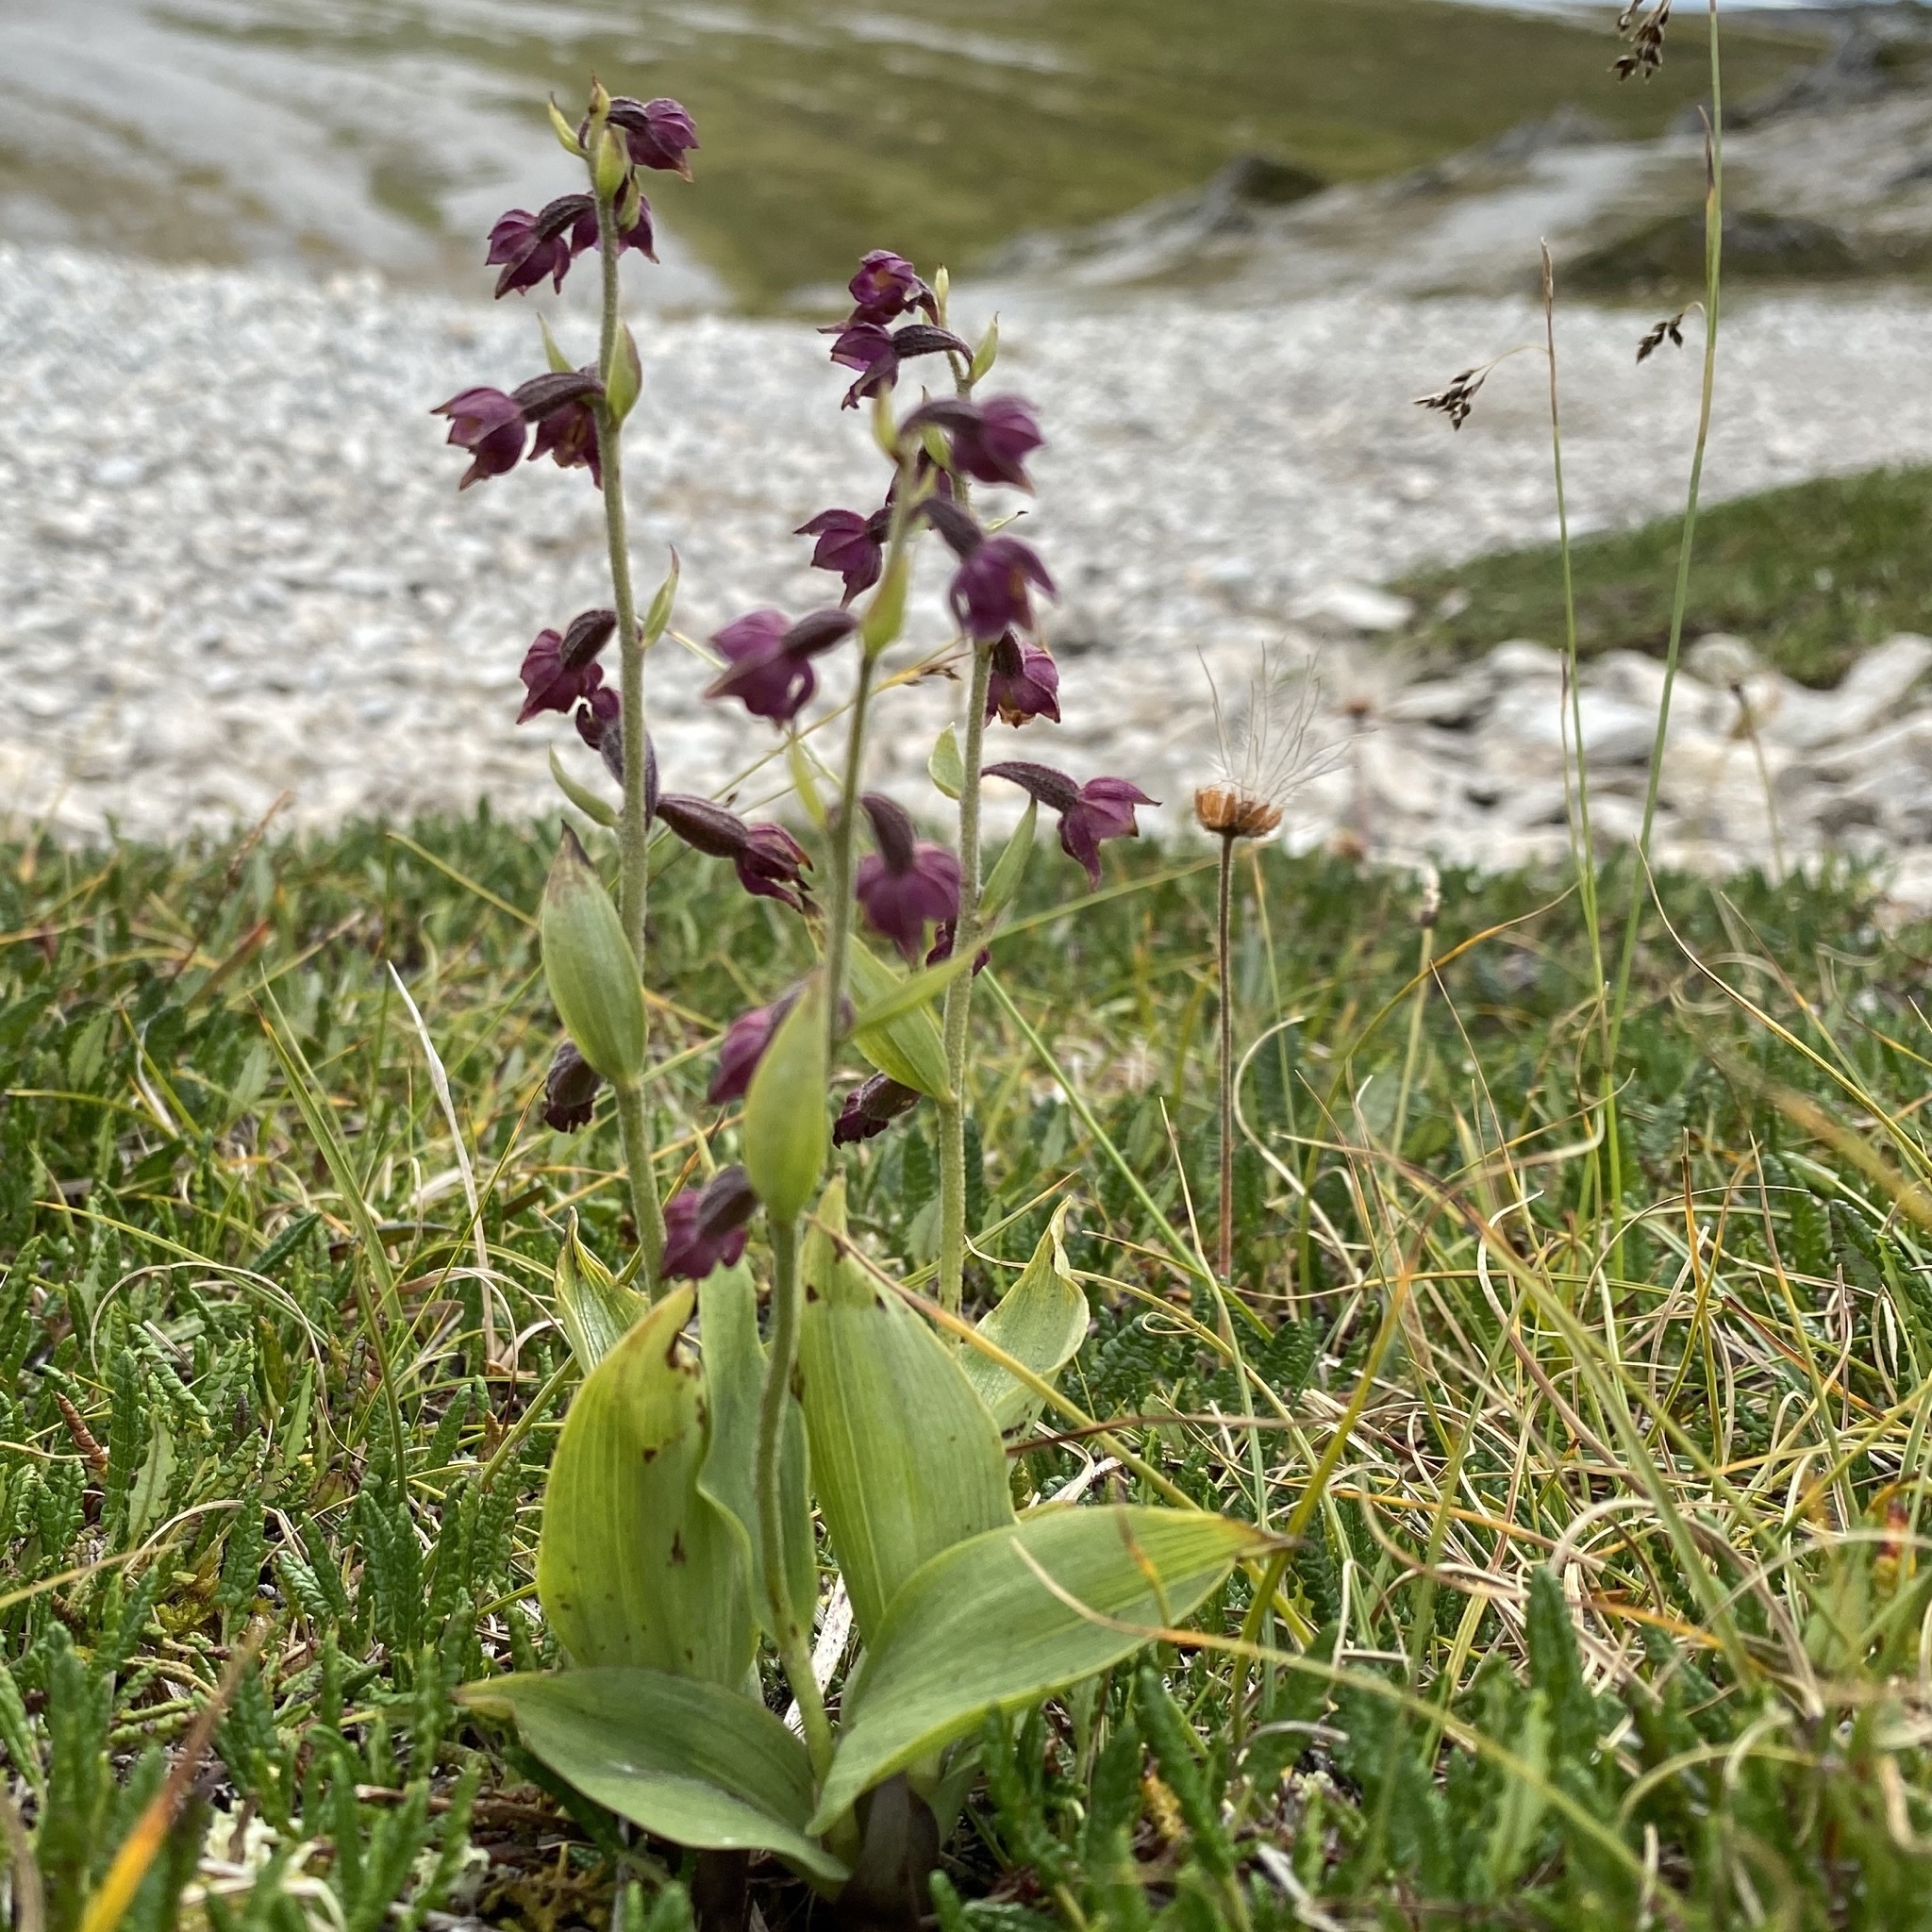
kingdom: Plantae
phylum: Tracheophyta
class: Liliopsida
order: Asparagales
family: Orchidaceae
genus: Epipactis
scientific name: Epipactis atrorubens
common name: Dark-red helleborine
